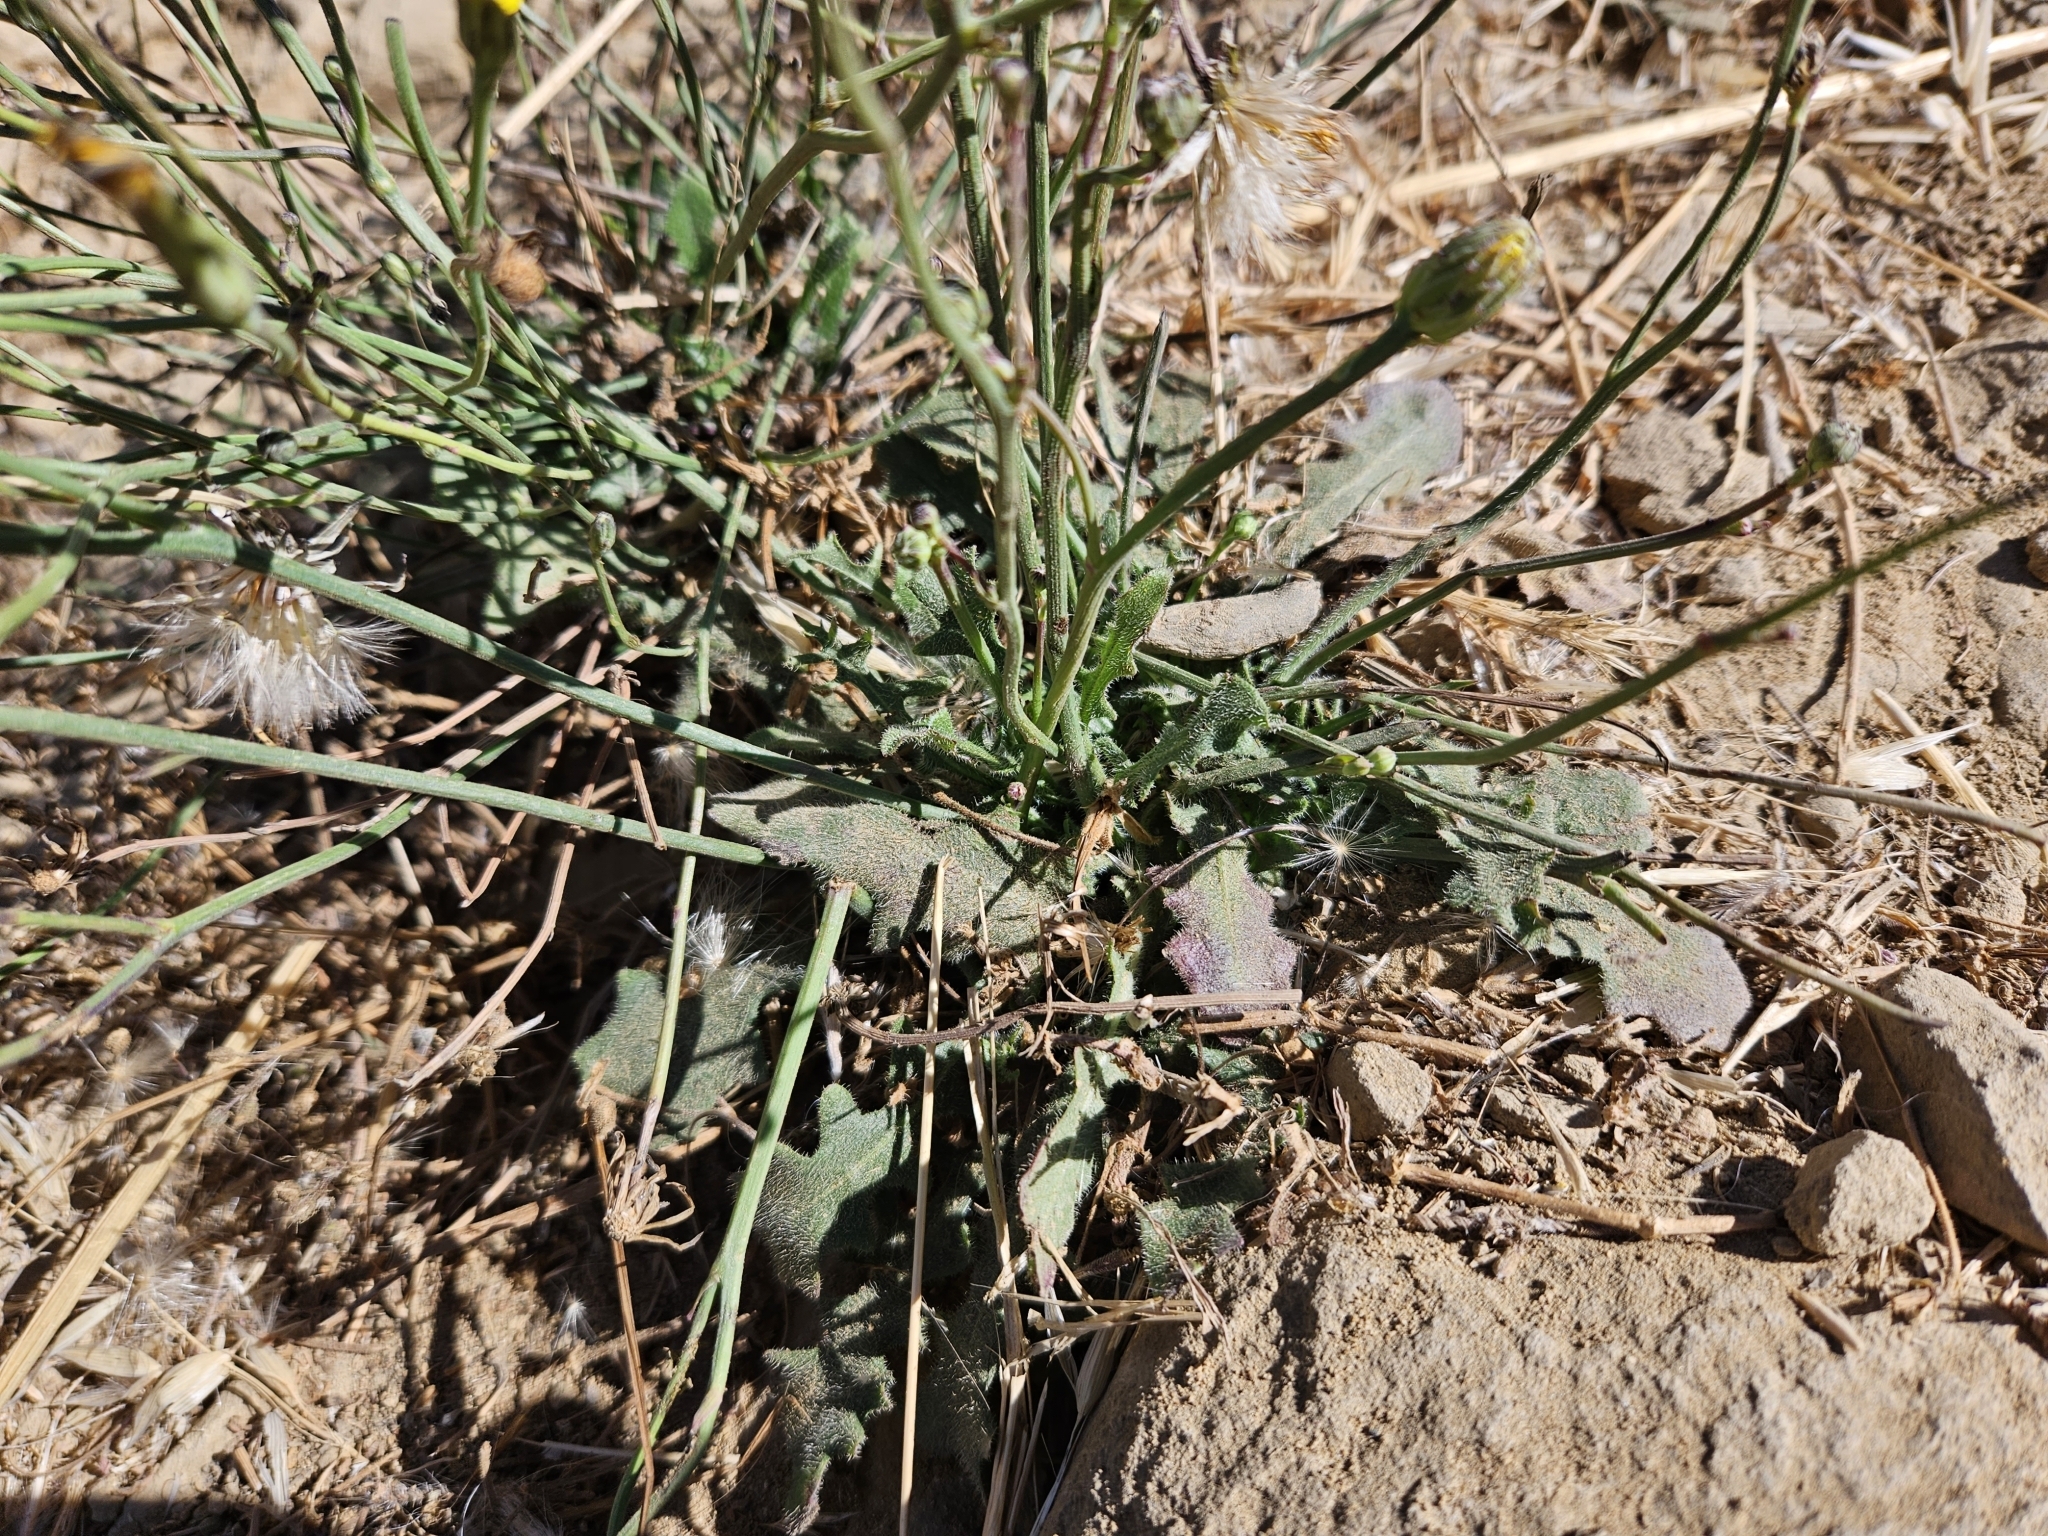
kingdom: Plantae
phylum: Tracheophyta
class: Magnoliopsida
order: Asterales
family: Asteraceae
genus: Hypochaeris
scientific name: Hypochaeris radicata
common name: Flatweed
